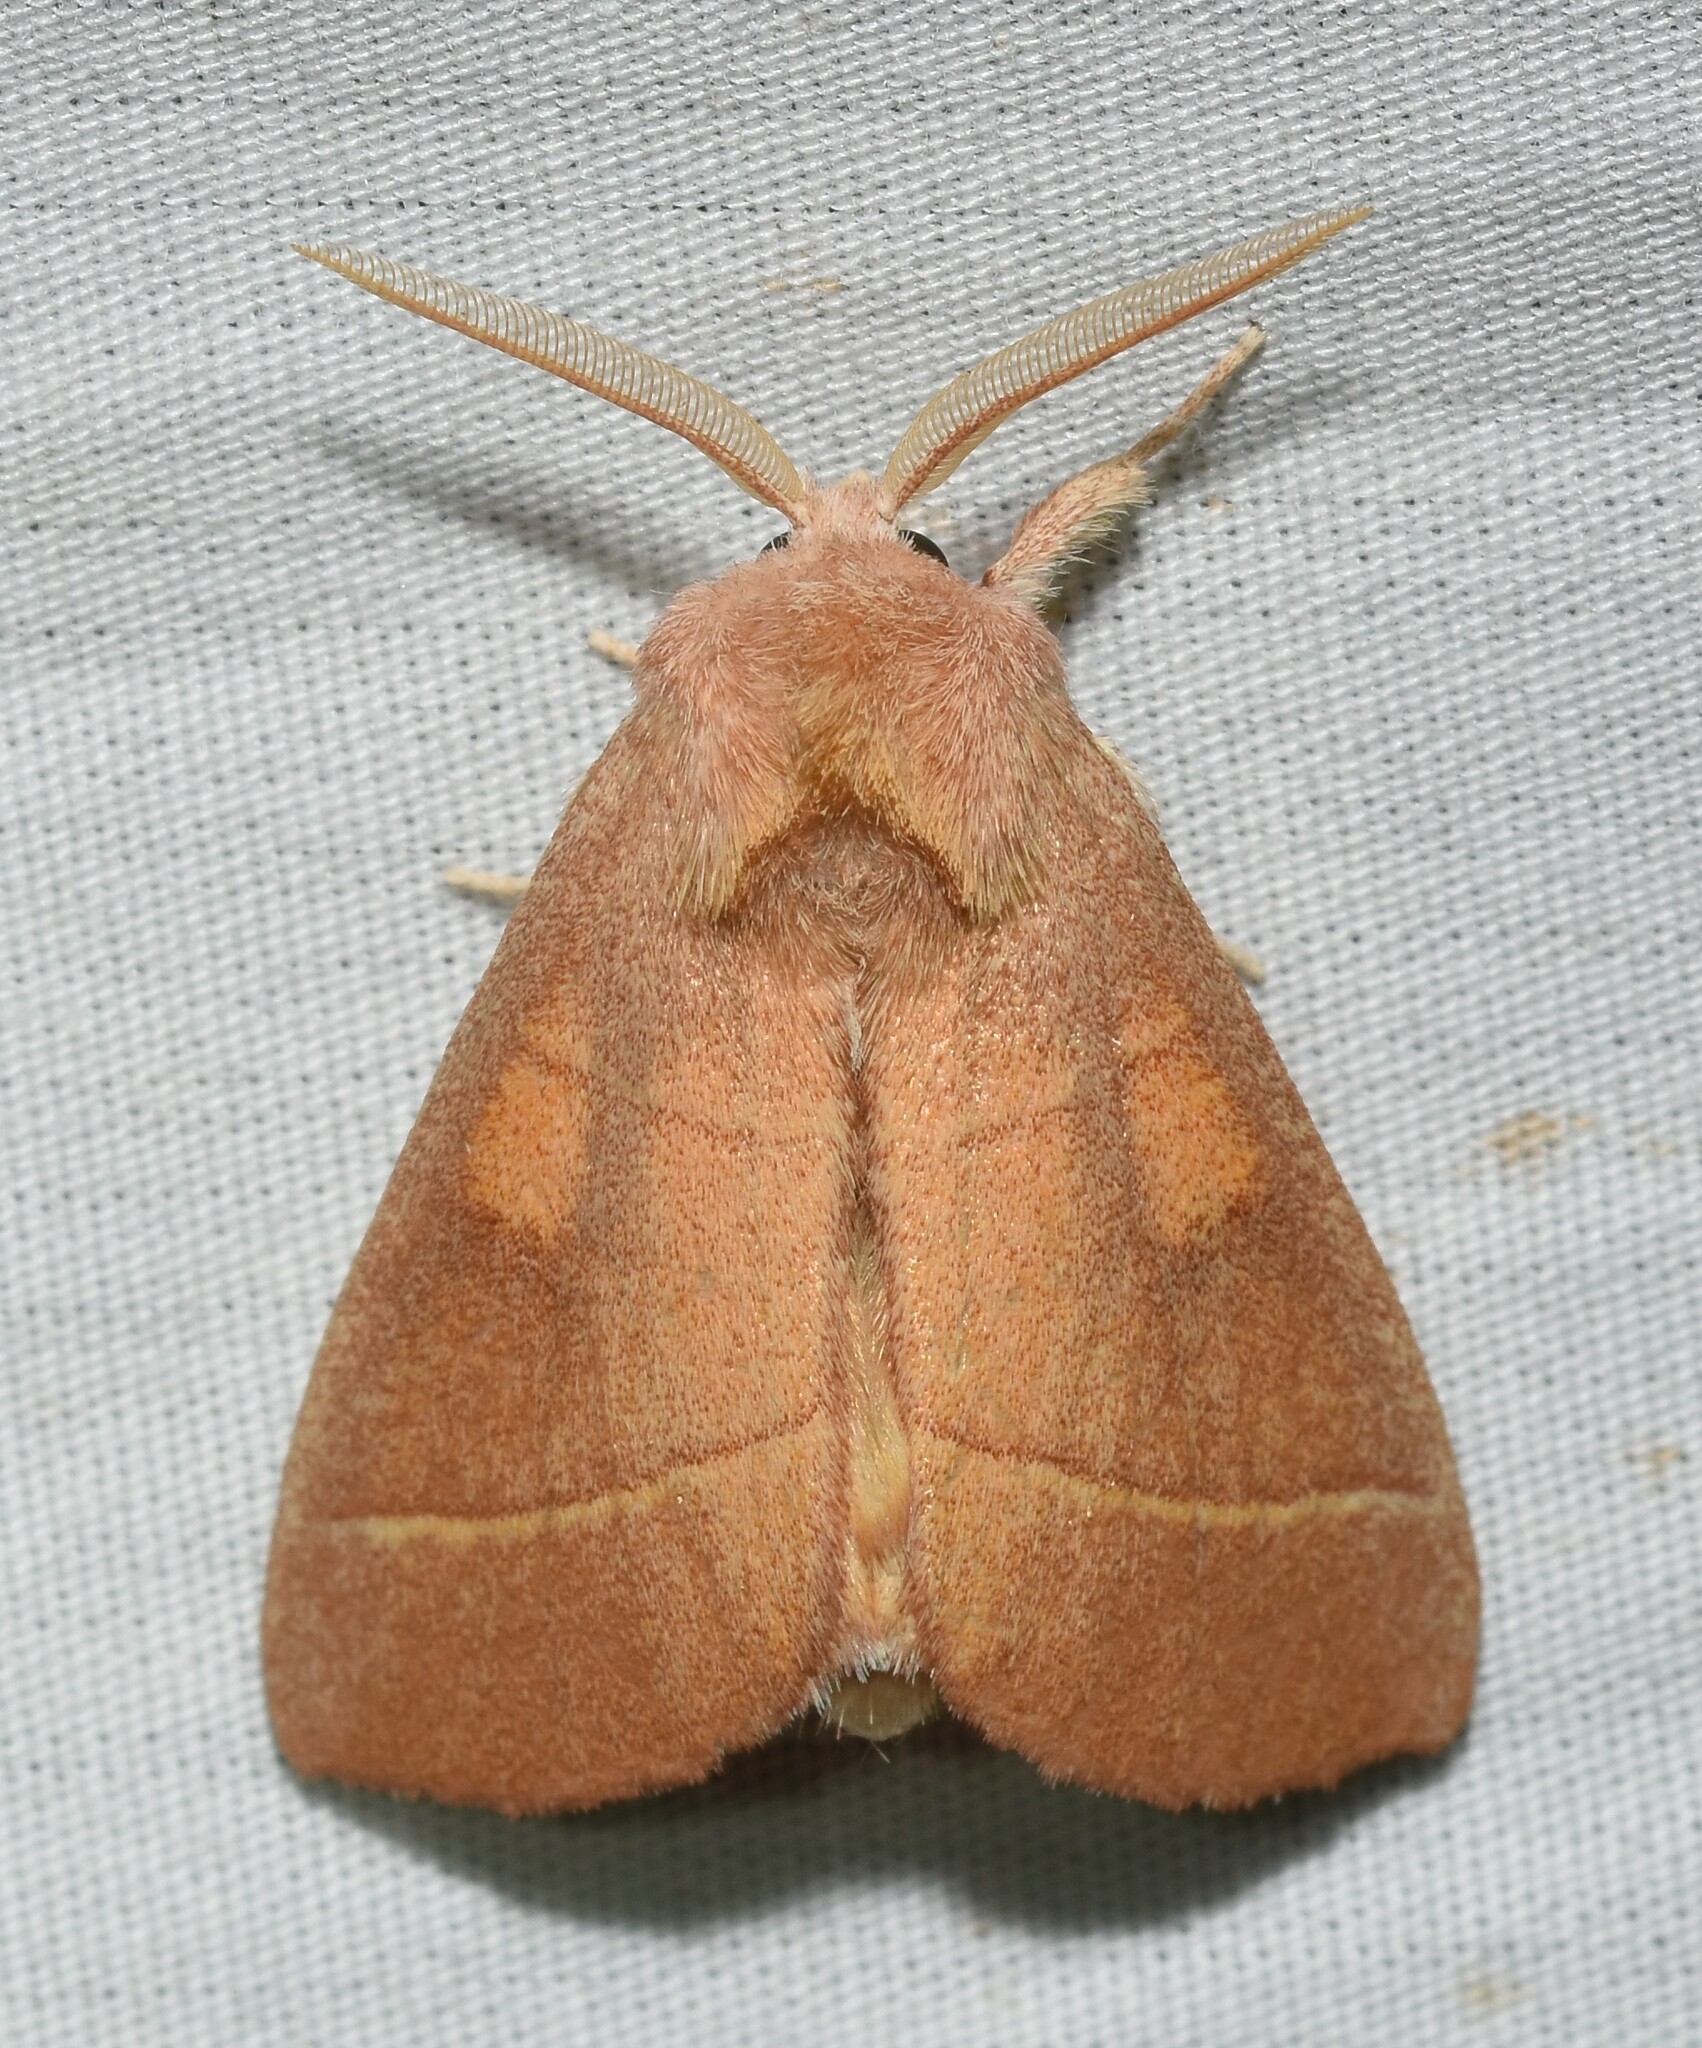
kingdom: Animalia
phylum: Arthropoda
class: Insecta
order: Lepidoptera
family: Notodontidae
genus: Nadata
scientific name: Nadata gibbosa
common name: White-dotted prominent
